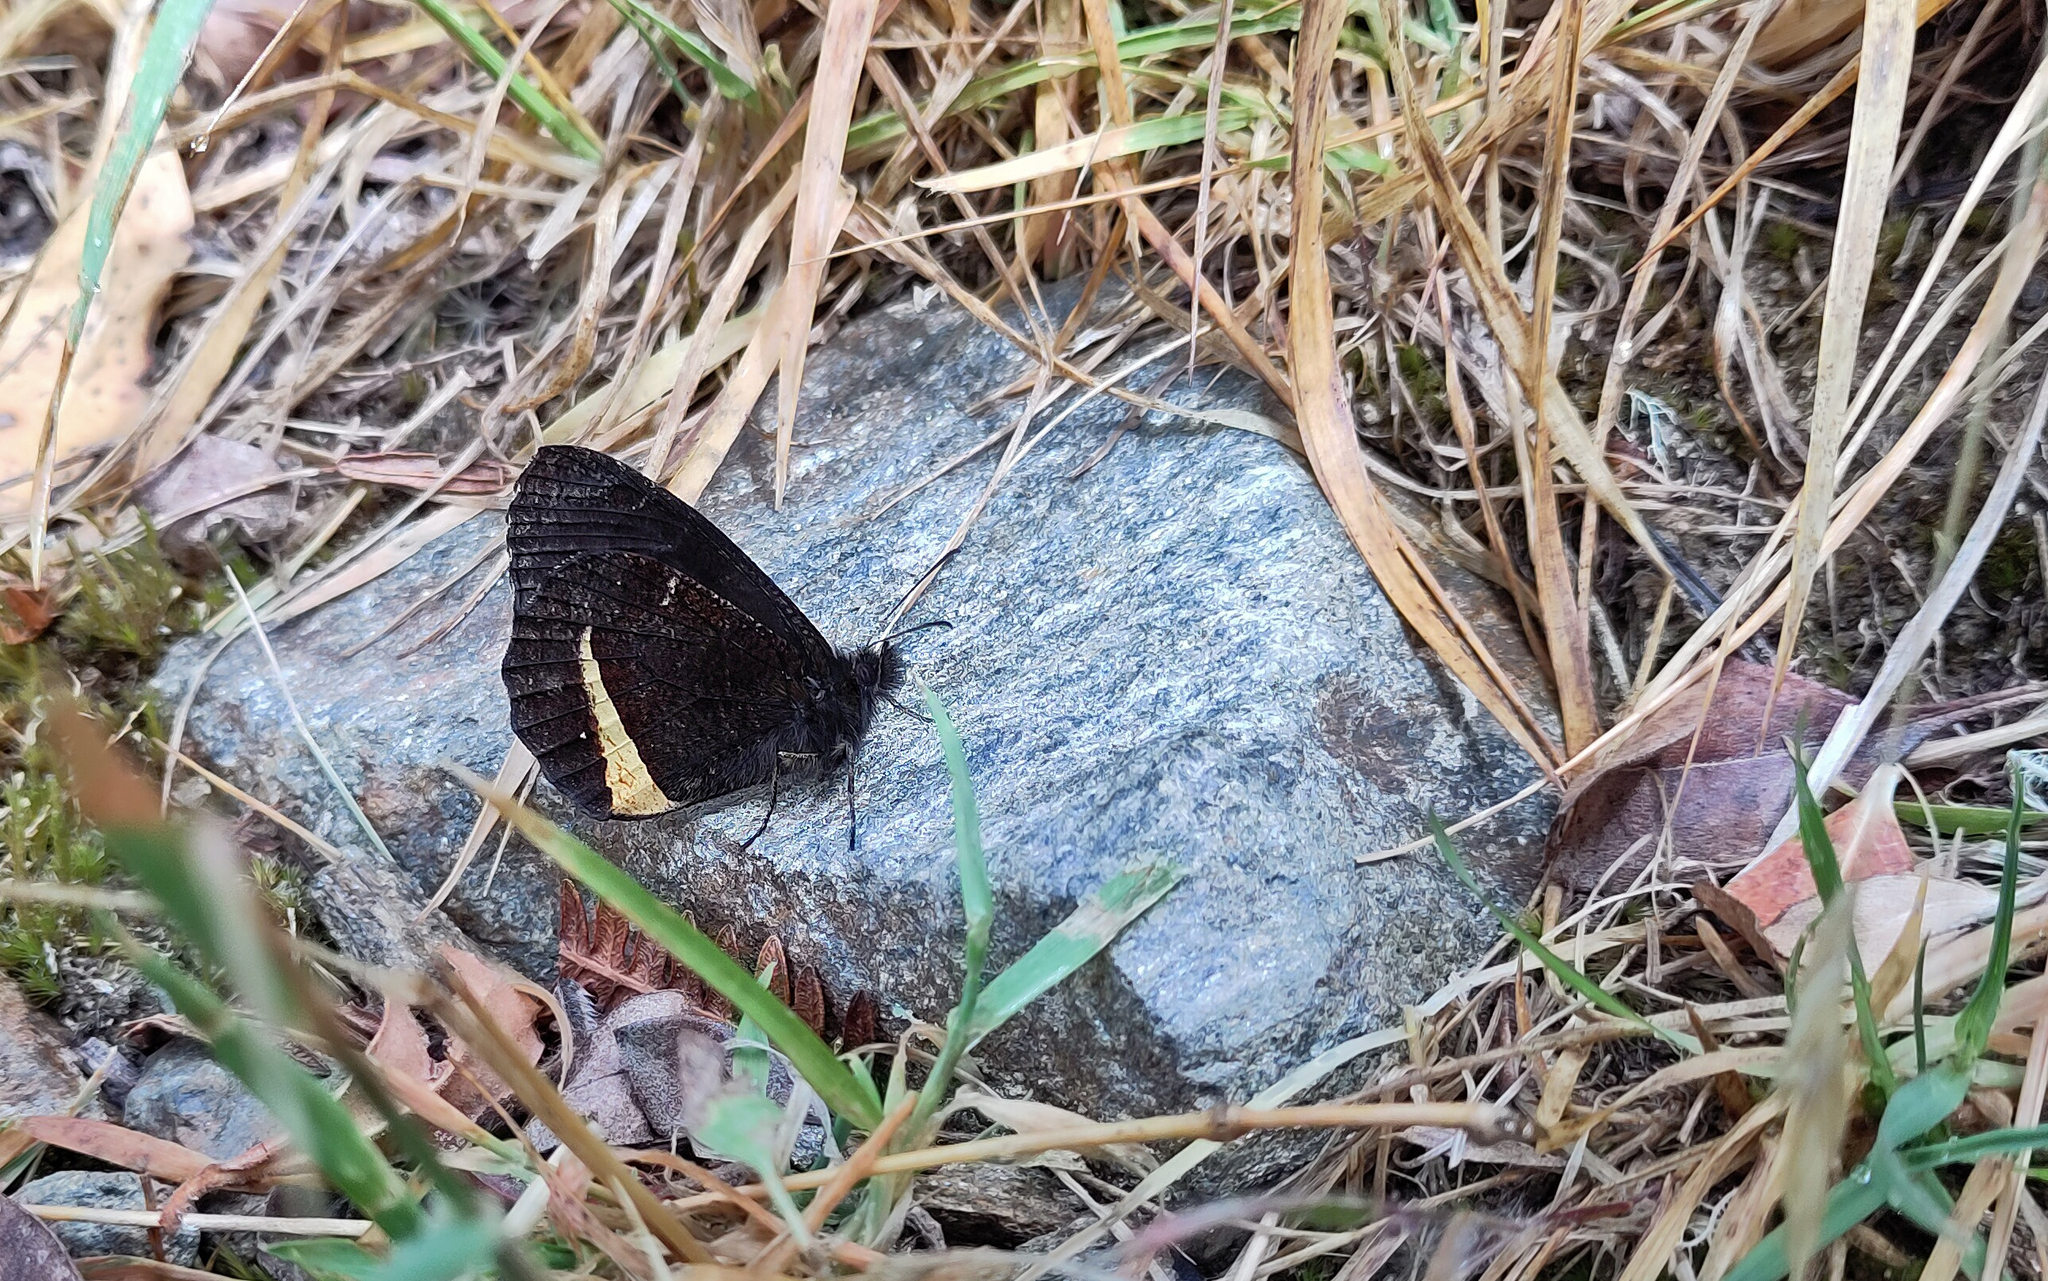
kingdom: Animalia
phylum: Arthropoda
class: Insecta
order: Lepidoptera
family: Nymphalidae
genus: Pedaliodes
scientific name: Pedaliodes tyrrheus
